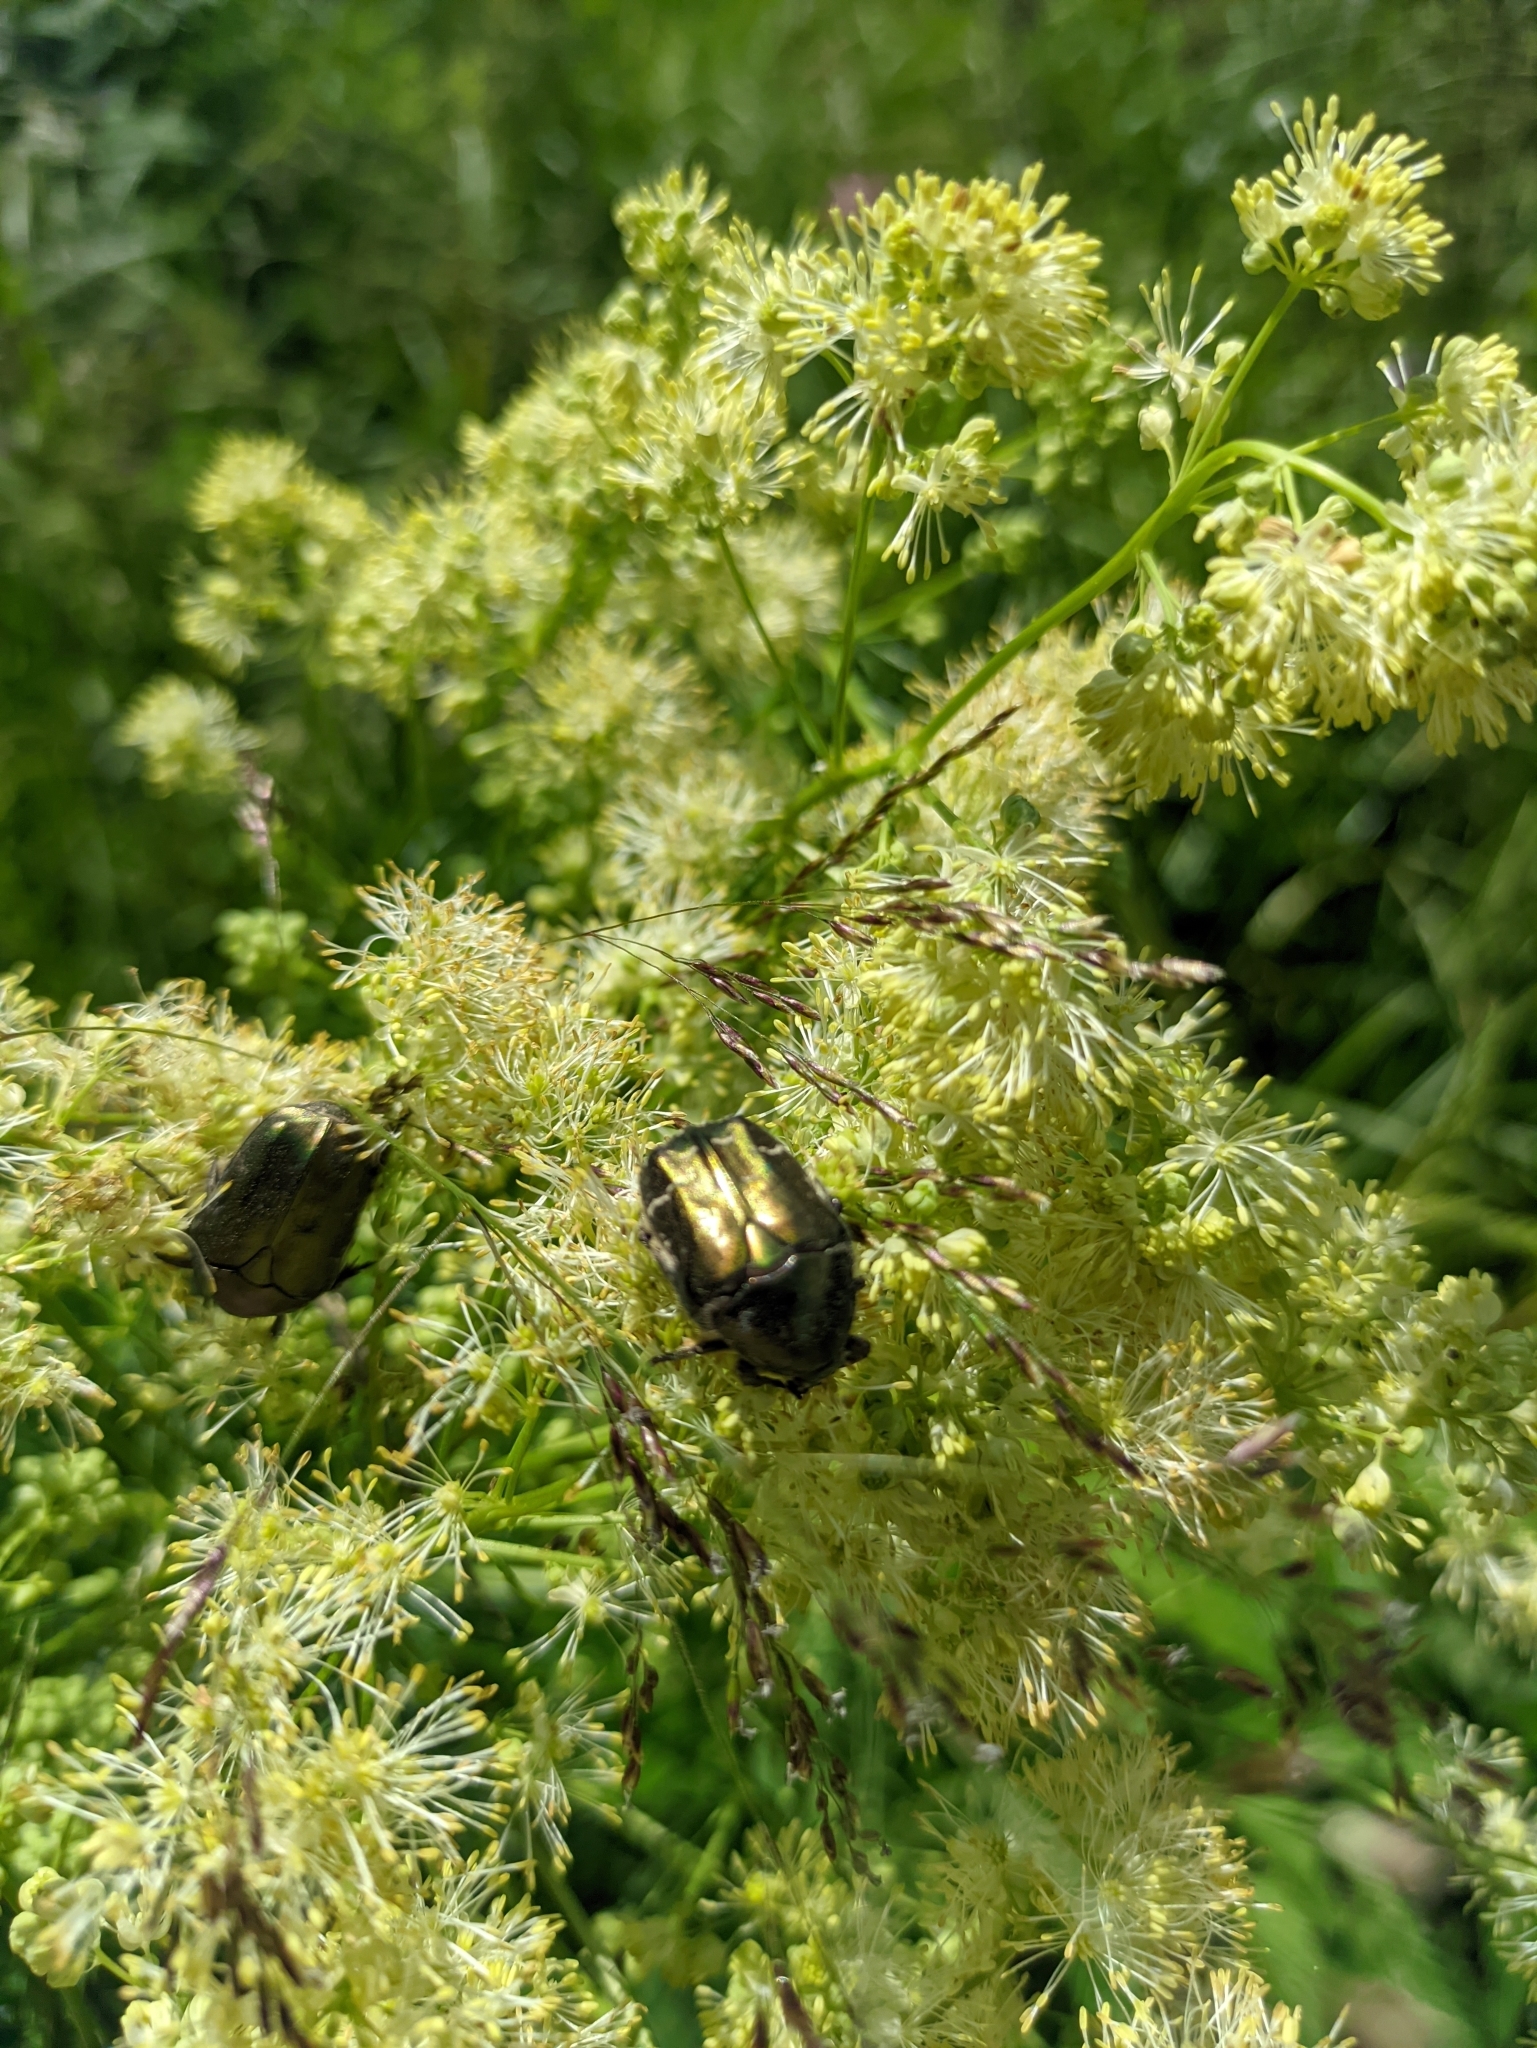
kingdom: Plantae
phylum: Tracheophyta
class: Magnoliopsida
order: Ranunculales
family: Ranunculaceae
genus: Thalictrum
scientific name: Thalictrum lucidum
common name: Shining meadow-rue
